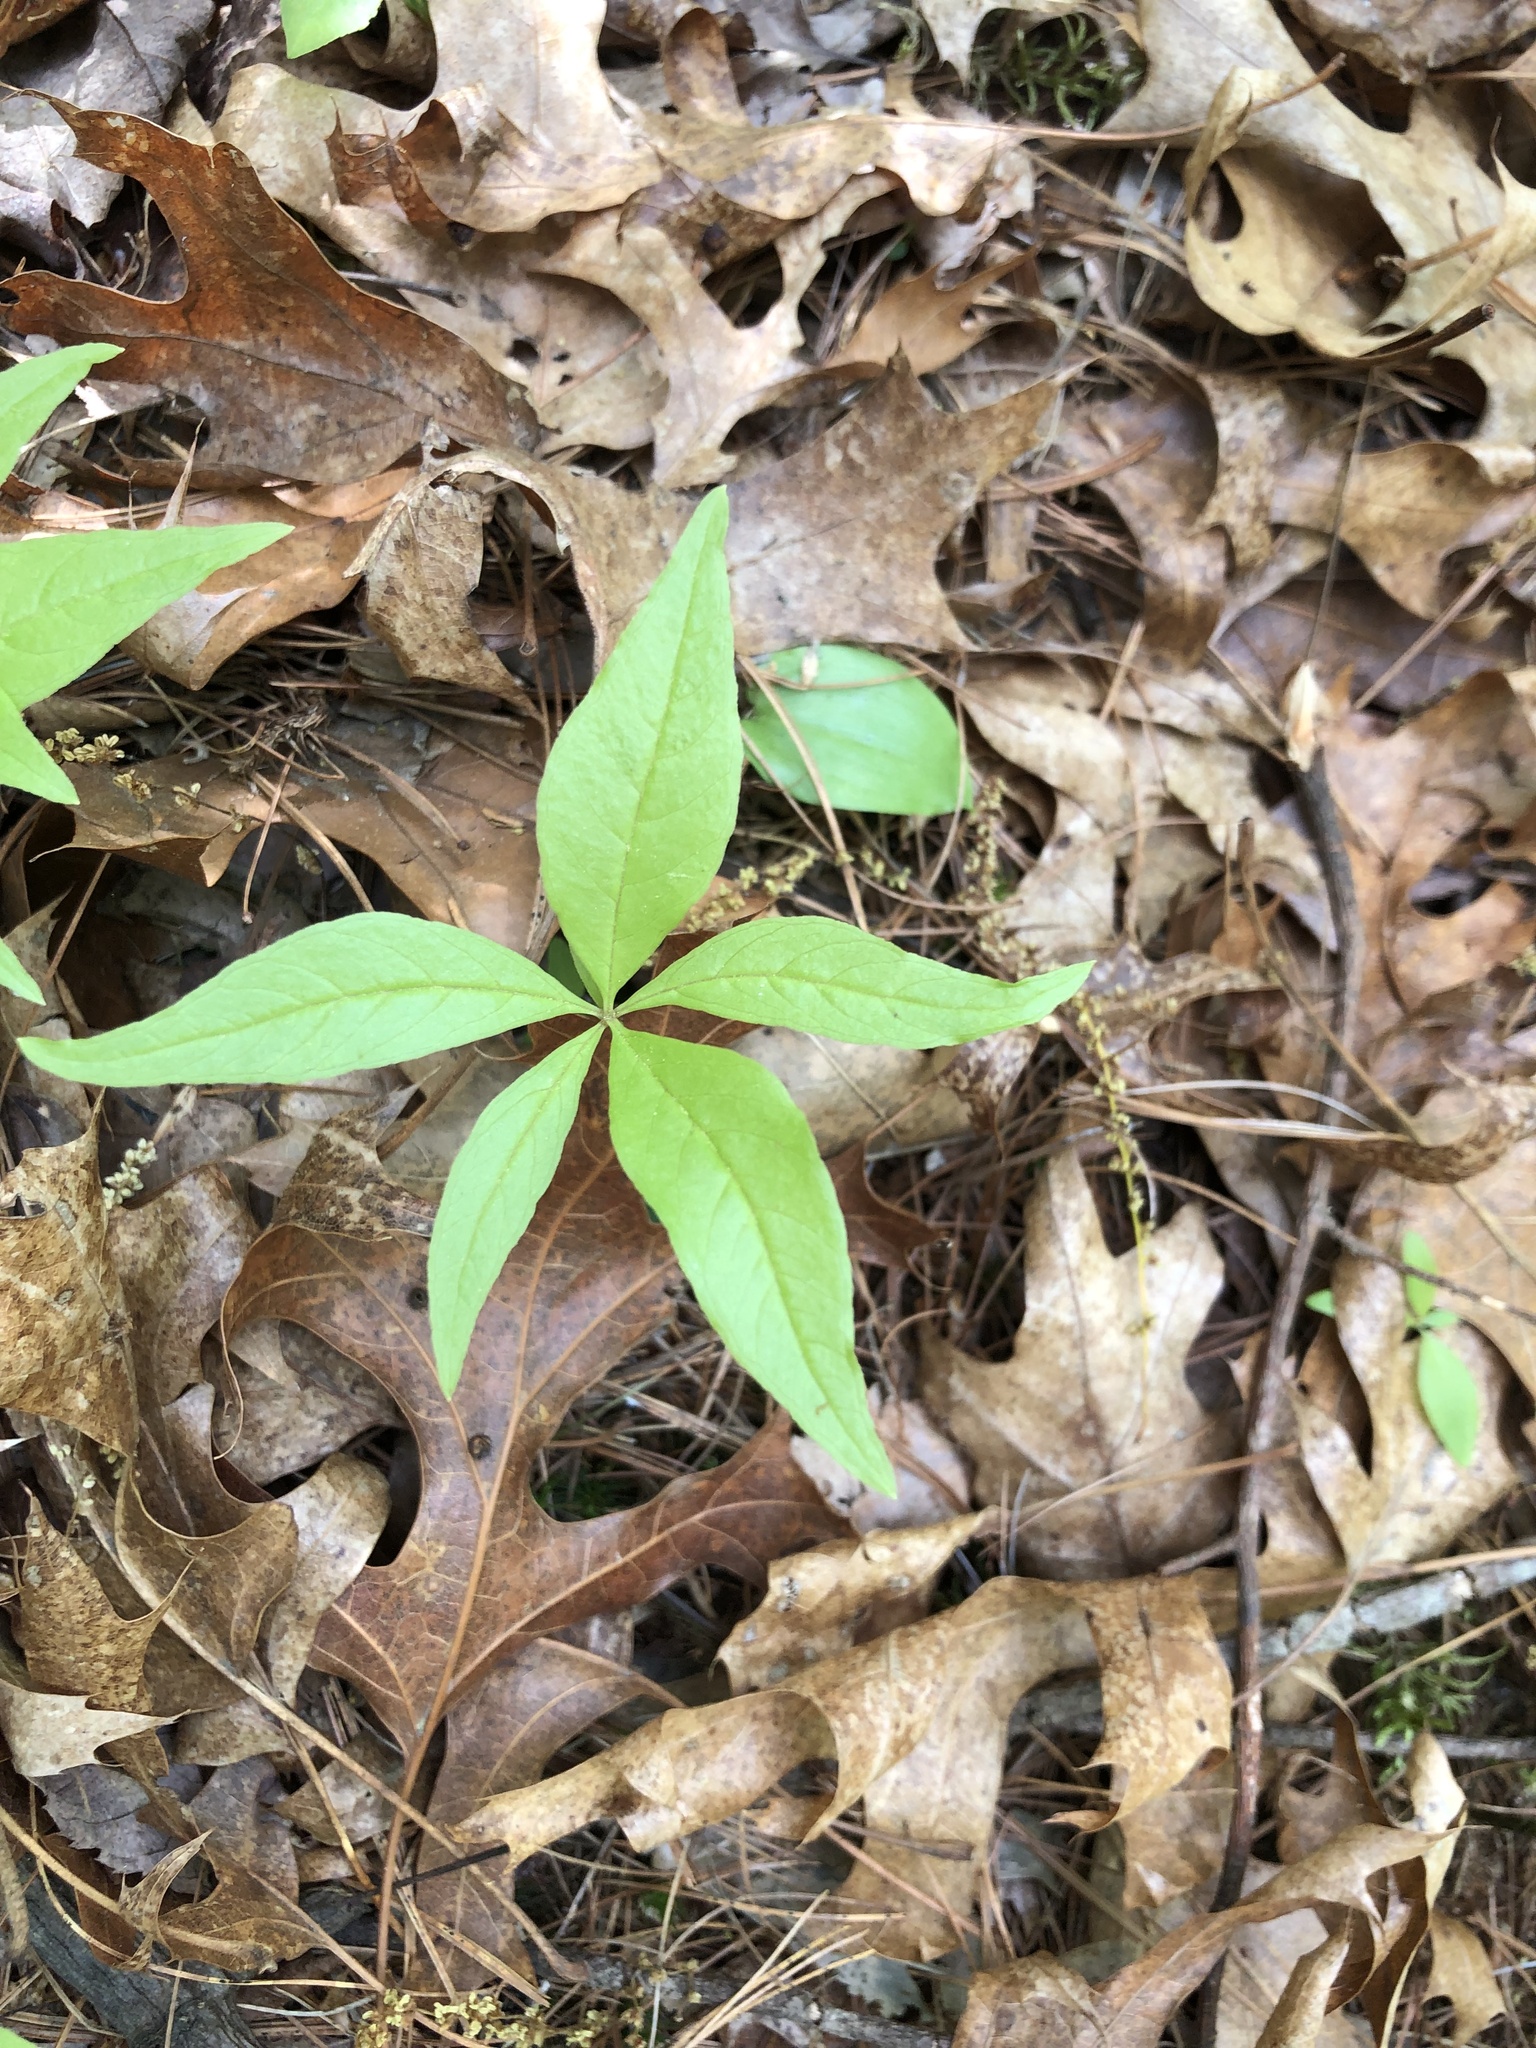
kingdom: Plantae
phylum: Tracheophyta
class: Magnoliopsida
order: Ericales
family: Primulaceae
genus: Lysimachia
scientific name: Lysimachia borealis
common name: American starflower
